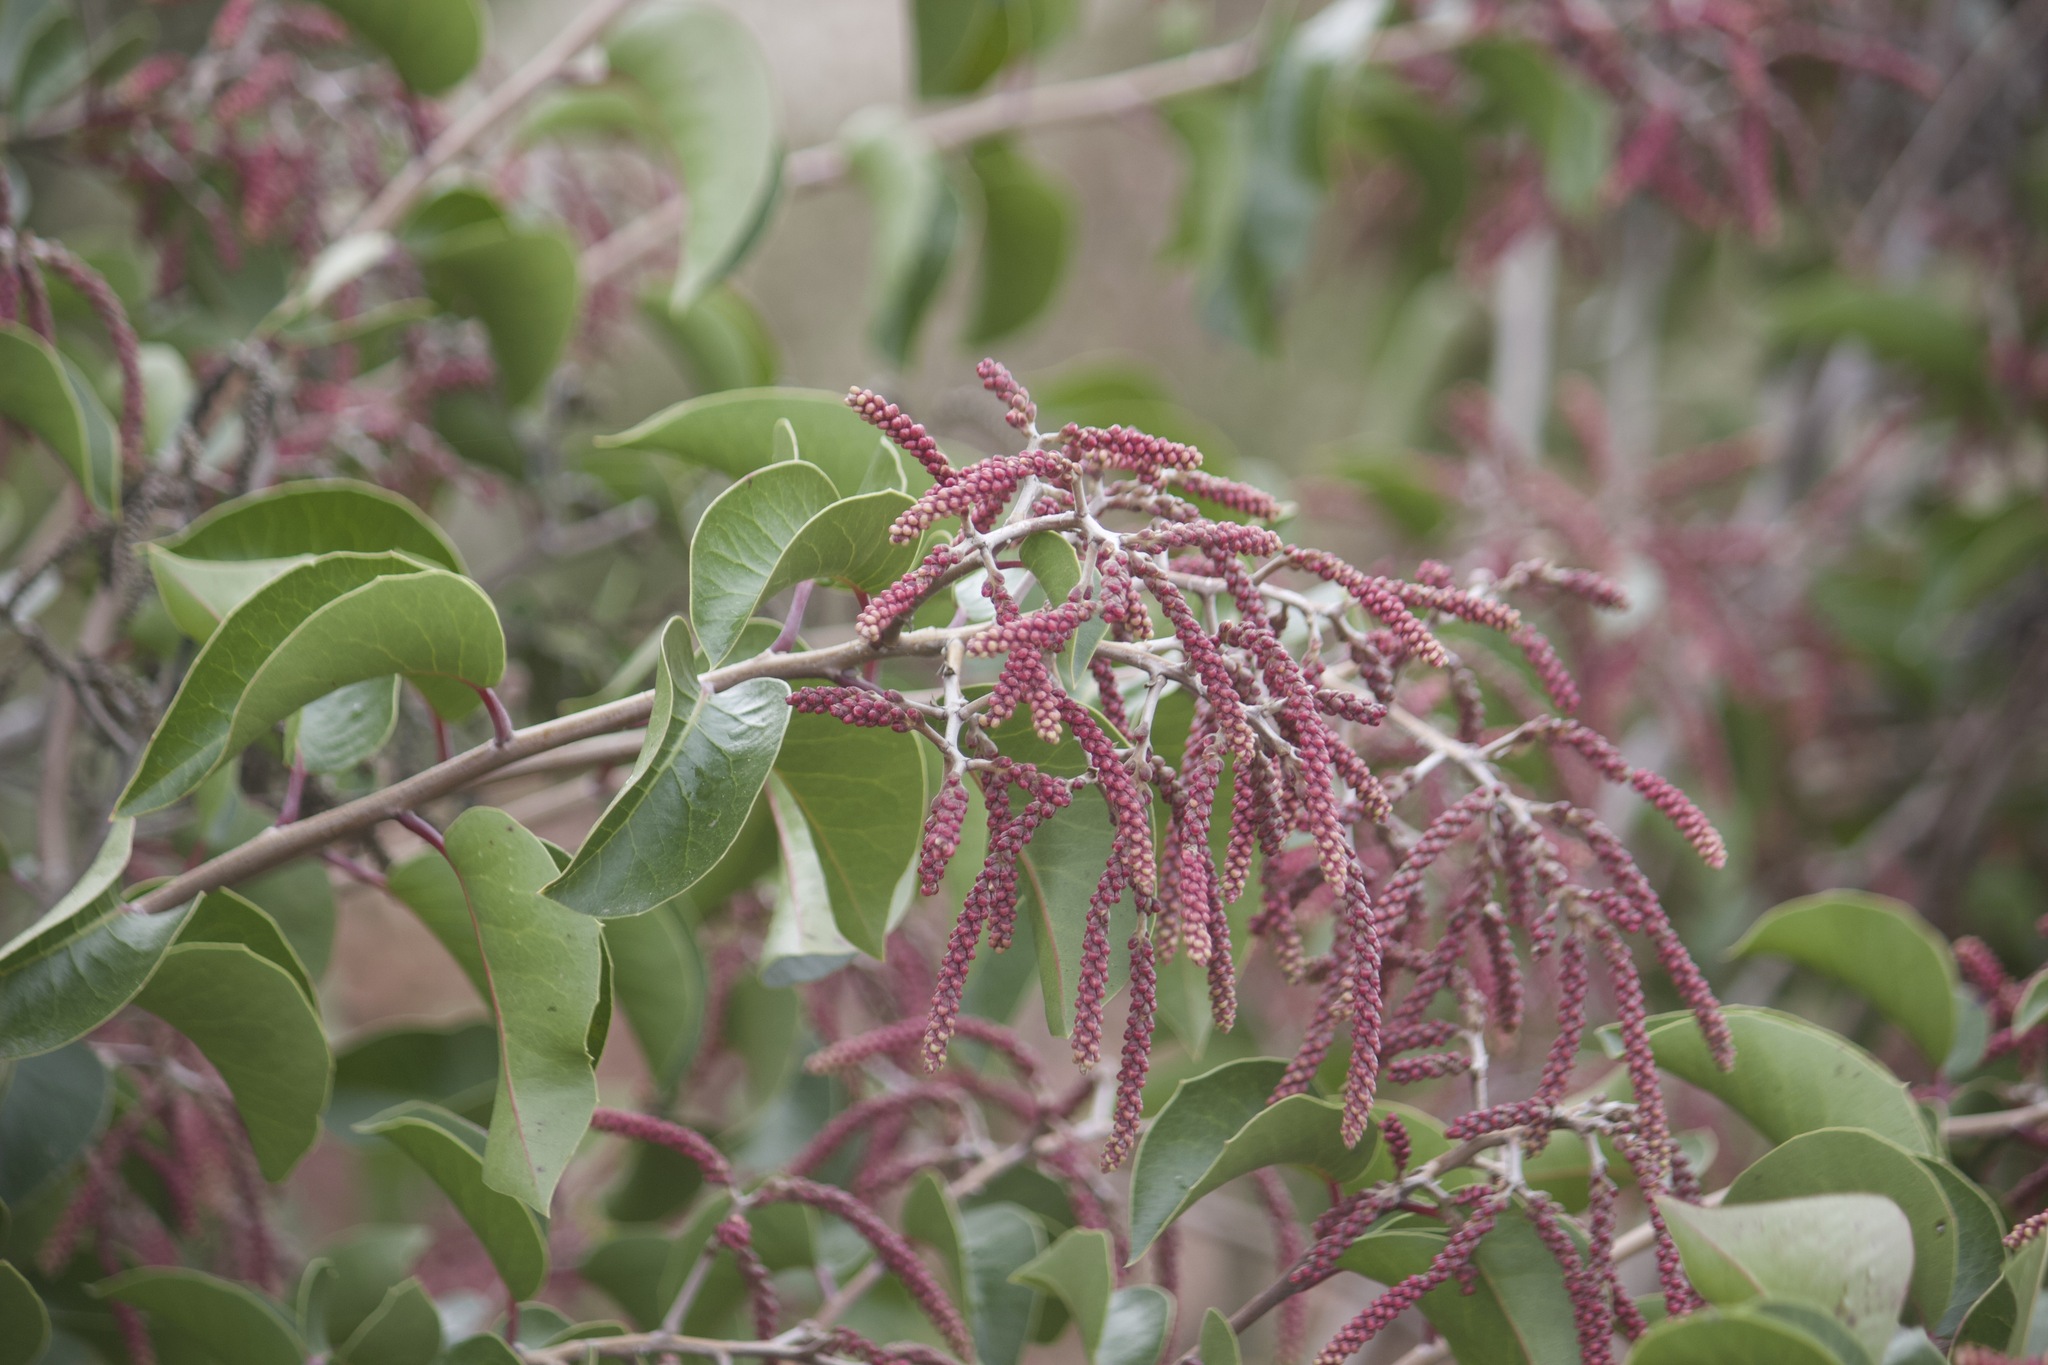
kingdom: Plantae
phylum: Tracheophyta
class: Magnoliopsida
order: Sapindales
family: Anacardiaceae
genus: Rhus
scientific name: Rhus ovata
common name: Sugar sumac
